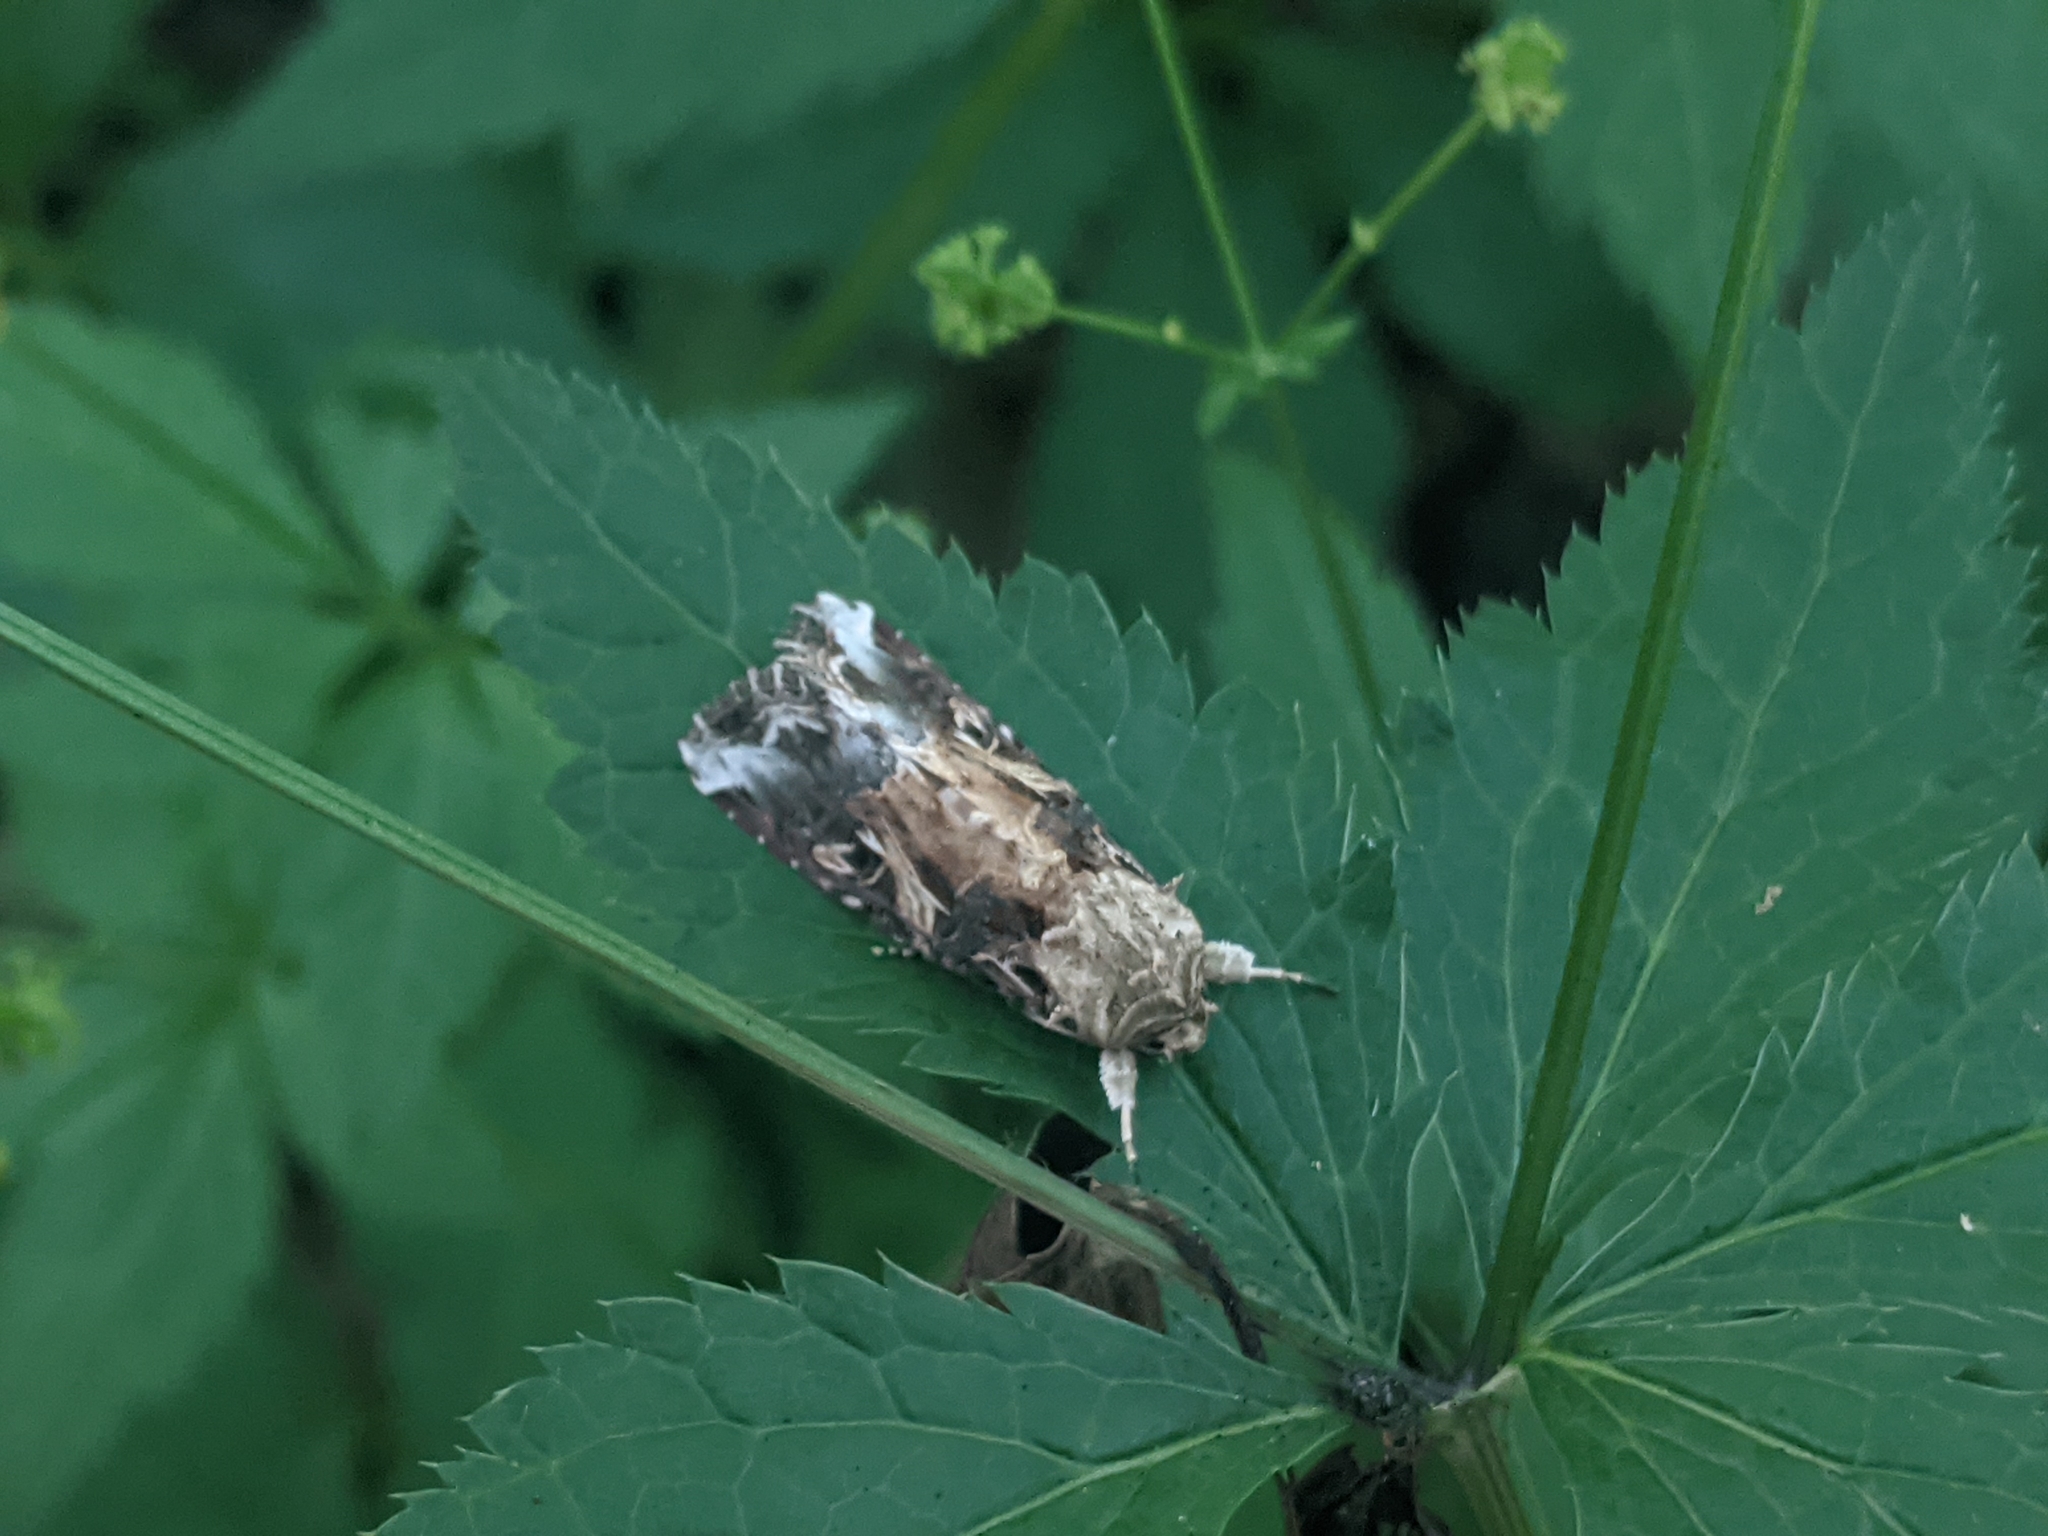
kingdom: Animalia
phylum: Arthropoda
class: Insecta
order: Lepidoptera
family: Noctuidae
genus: Spodoptera
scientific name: Spodoptera ornithogalli
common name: Yellow-striped armyworm
